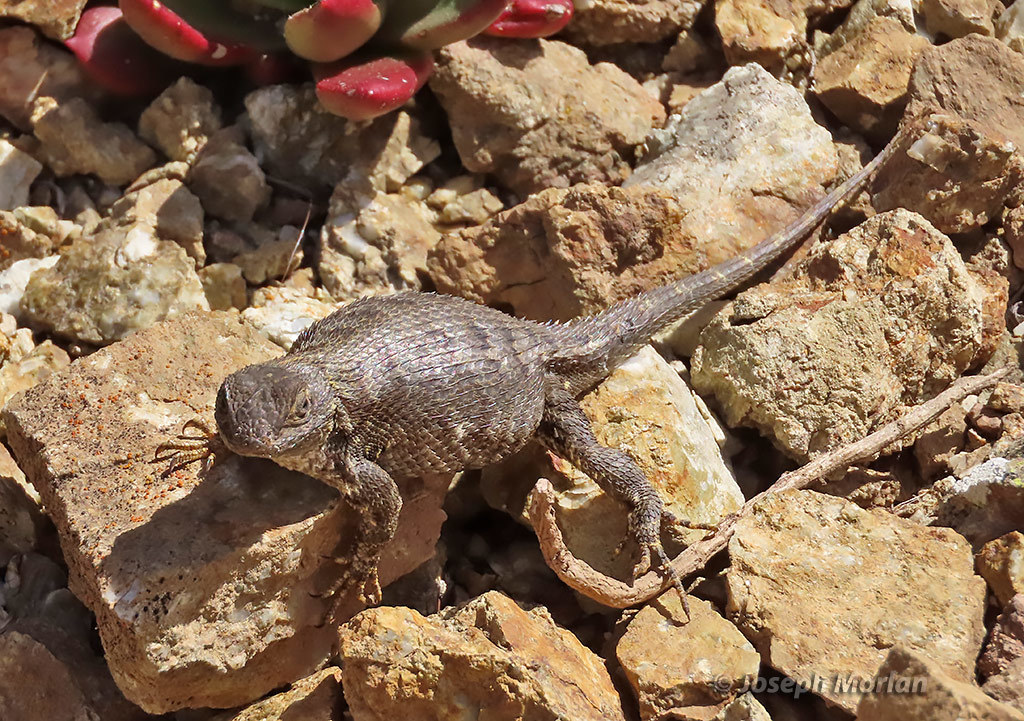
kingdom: Animalia
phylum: Chordata
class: Squamata
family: Phrynosomatidae
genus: Sceloporus
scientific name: Sceloporus occidentalis
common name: Western fence lizard
